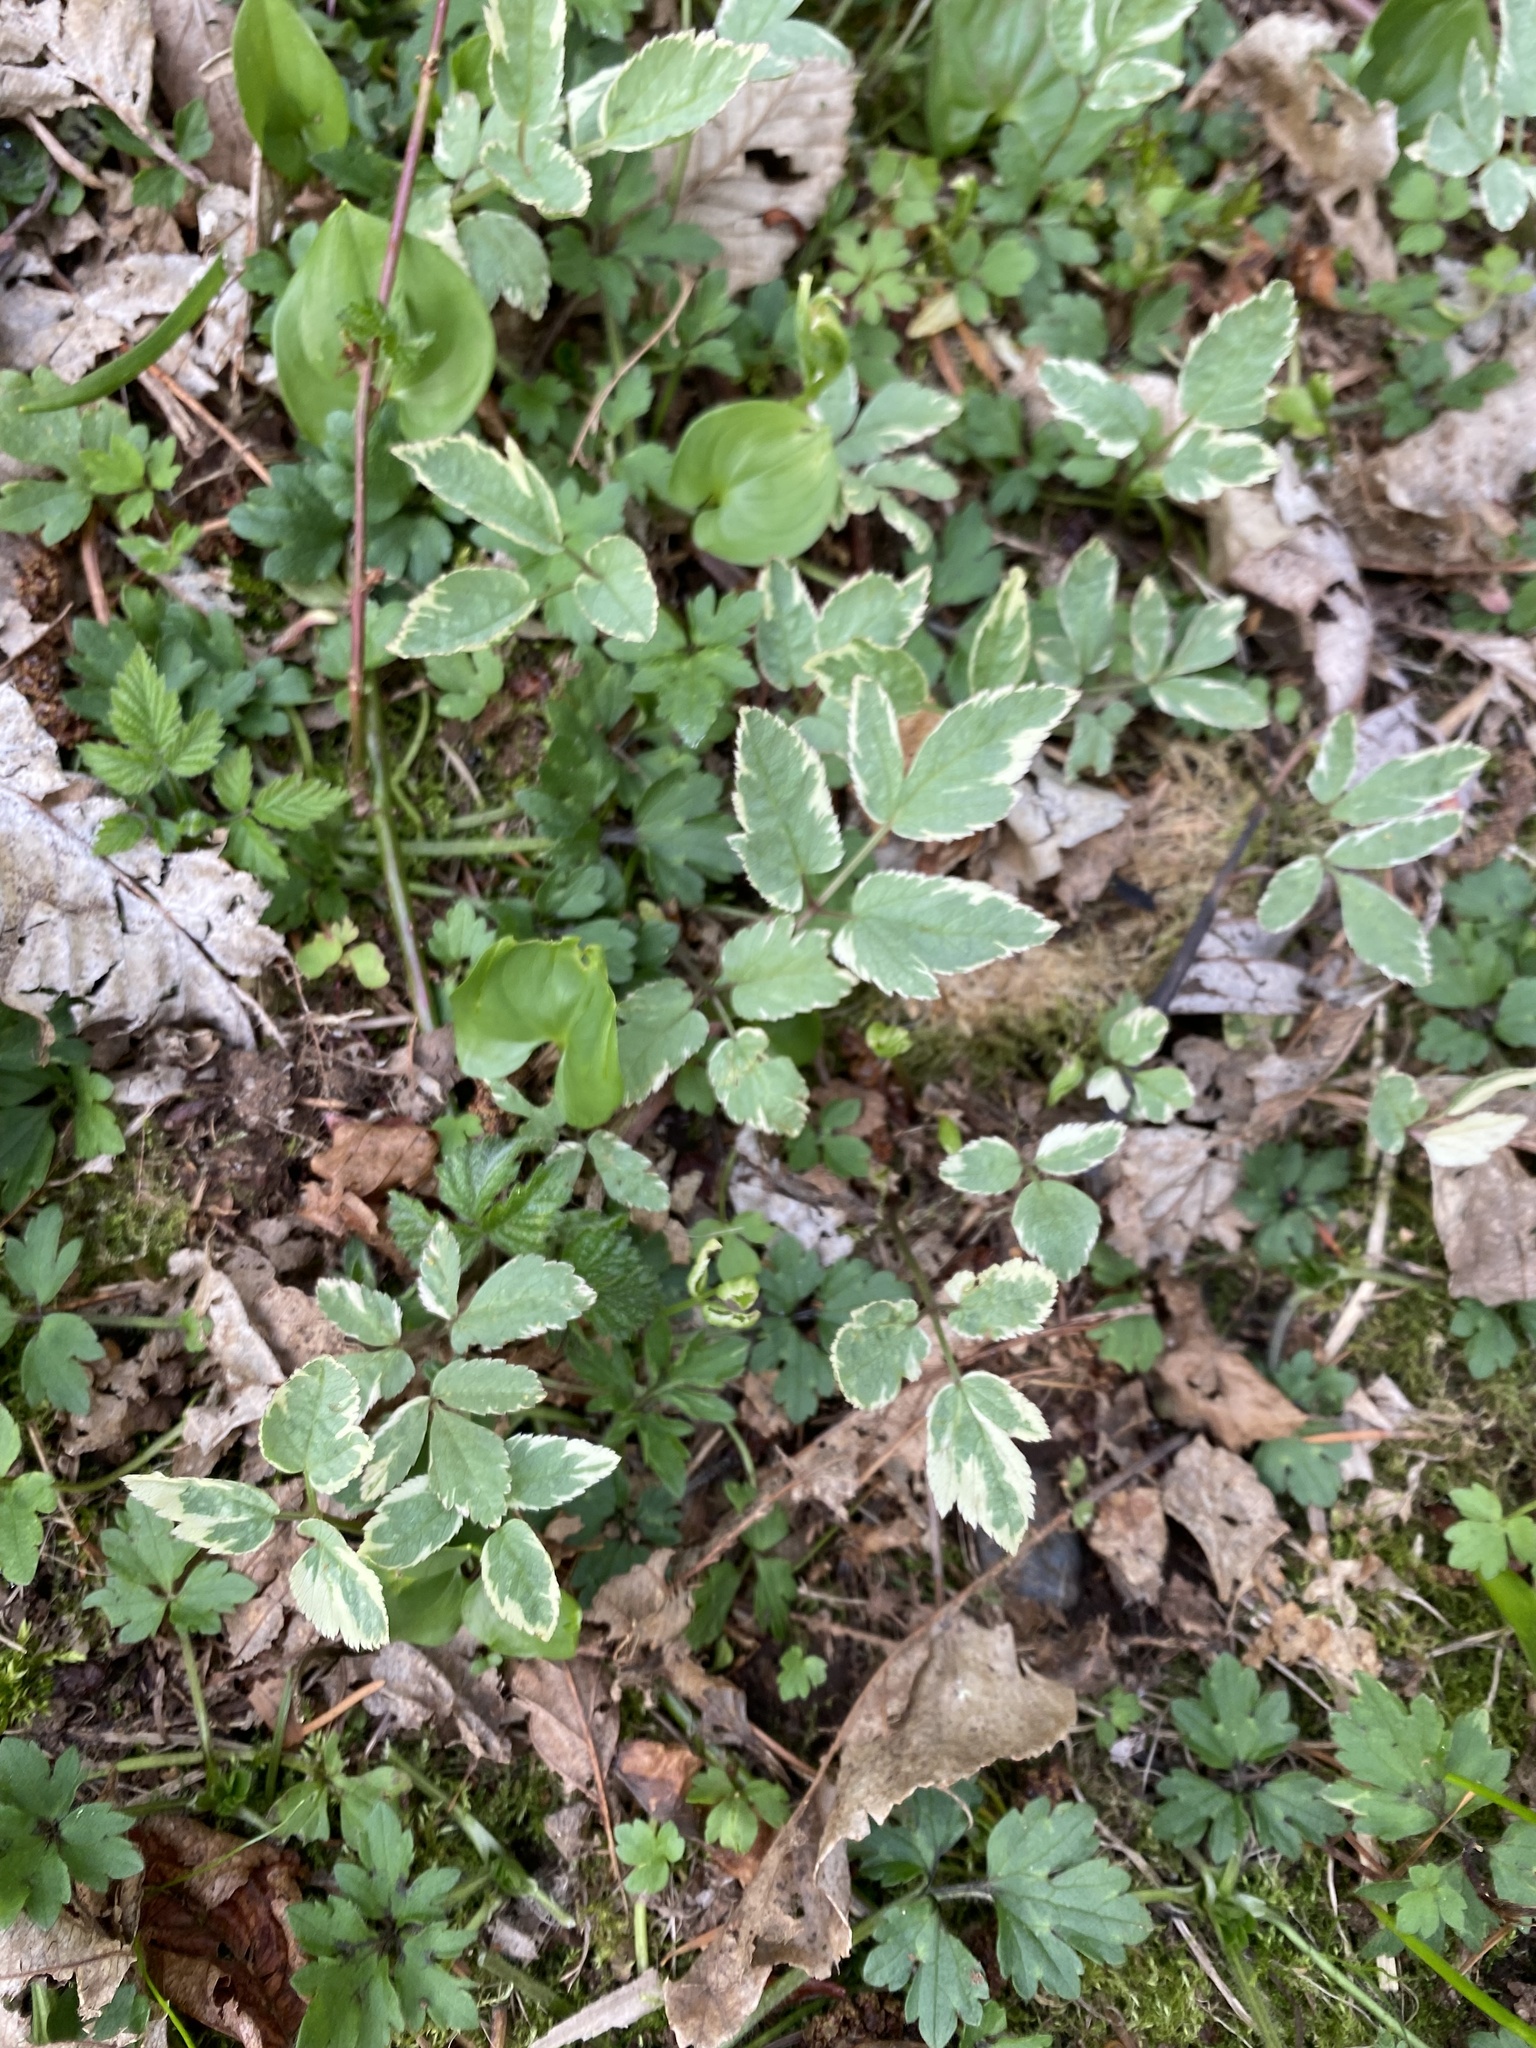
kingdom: Plantae
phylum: Tracheophyta
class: Magnoliopsida
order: Apiales
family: Apiaceae
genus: Aegopodium
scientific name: Aegopodium podagraria
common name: Ground-elder
